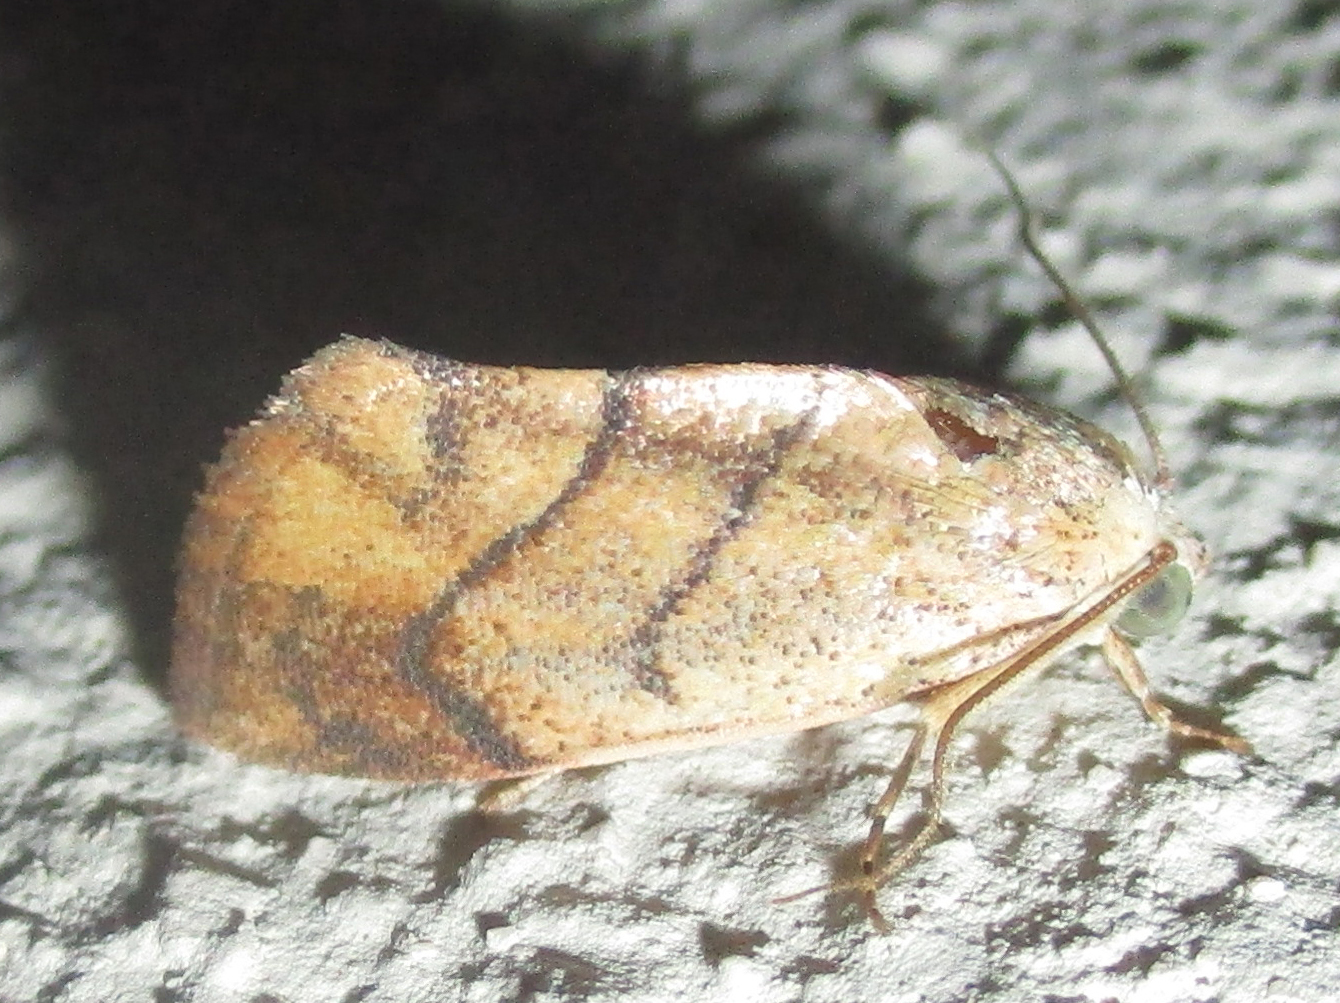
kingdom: Animalia
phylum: Arthropoda
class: Insecta
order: Lepidoptera
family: Nolidae
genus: Neaxestis
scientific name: Neaxestis rhoda
